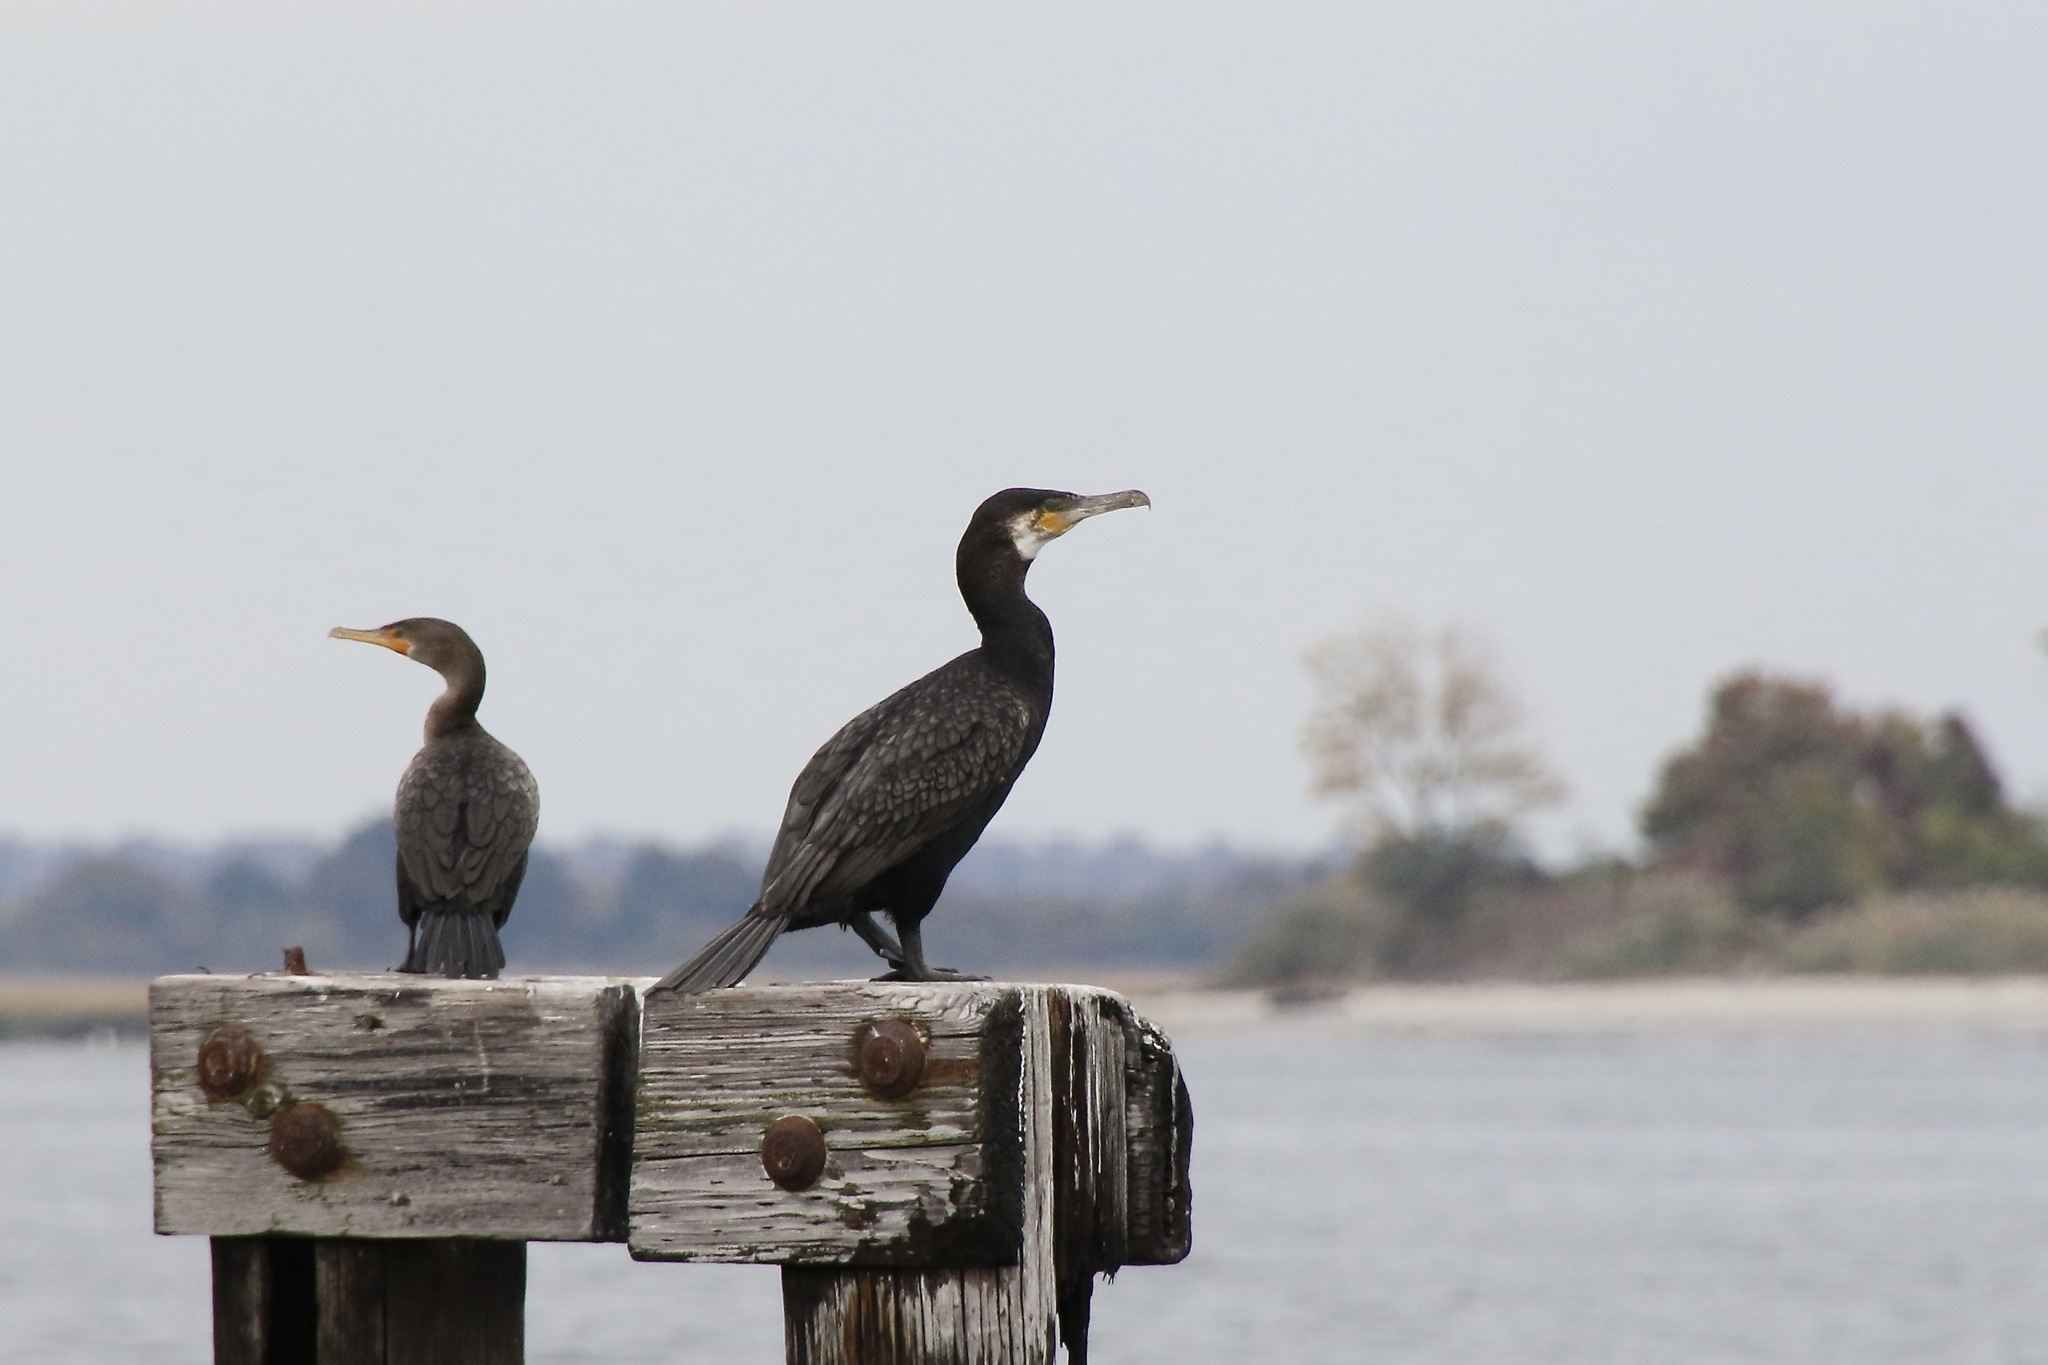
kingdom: Animalia
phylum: Chordata
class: Aves
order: Suliformes
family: Phalacrocoracidae
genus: Phalacrocorax
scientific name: Phalacrocorax carbo
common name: Great cormorant
